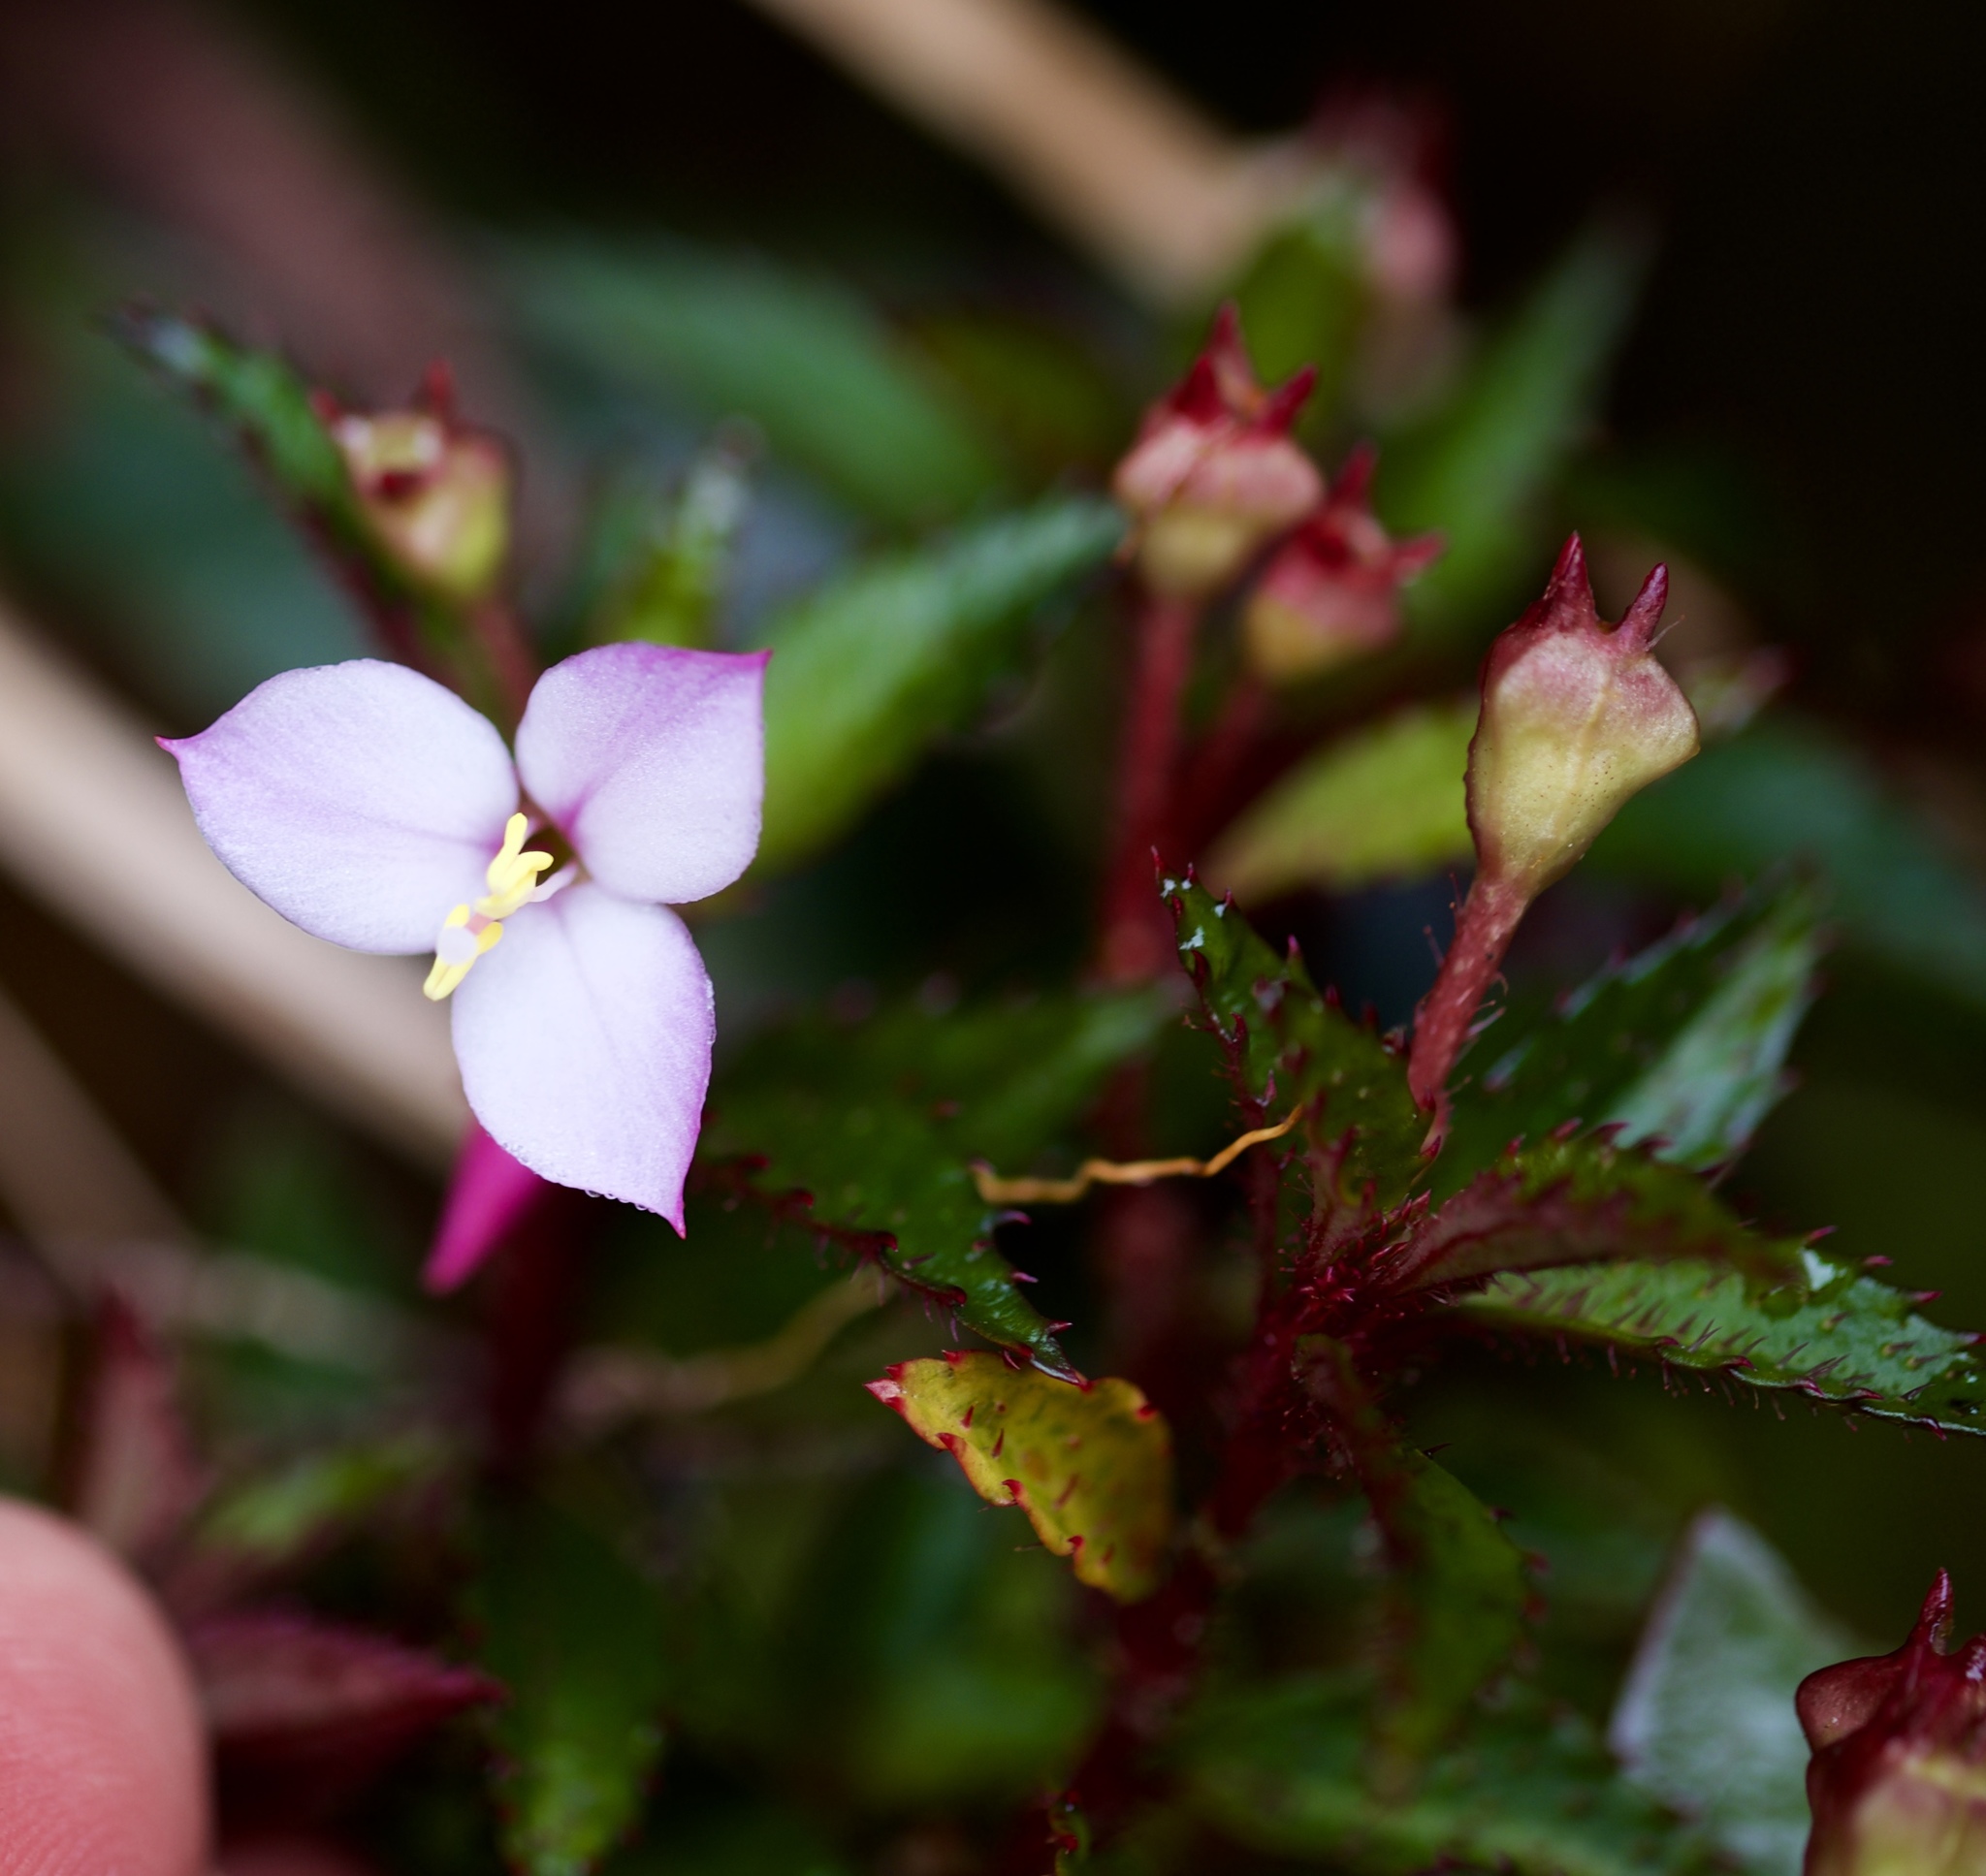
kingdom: Plantae
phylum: Tracheophyta
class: Magnoliopsida
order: Myrtales
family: Melastomataceae
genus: Sonerila
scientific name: Sonerila tenuifolia
